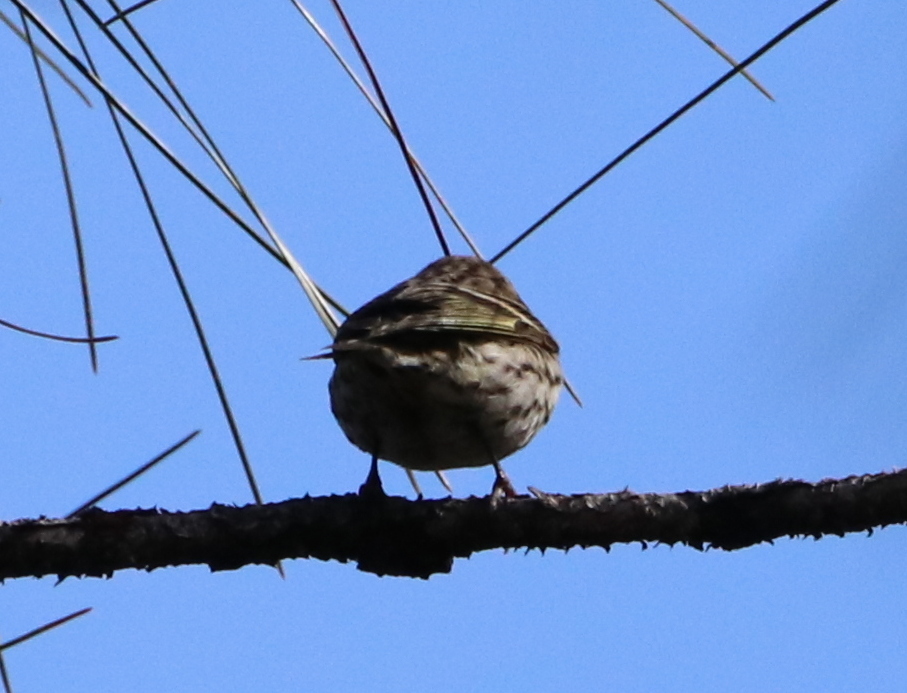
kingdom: Animalia
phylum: Chordata
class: Aves
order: Passeriformes
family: Fringillidae
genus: Spinus
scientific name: Spinus pinus
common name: Pine siskin
